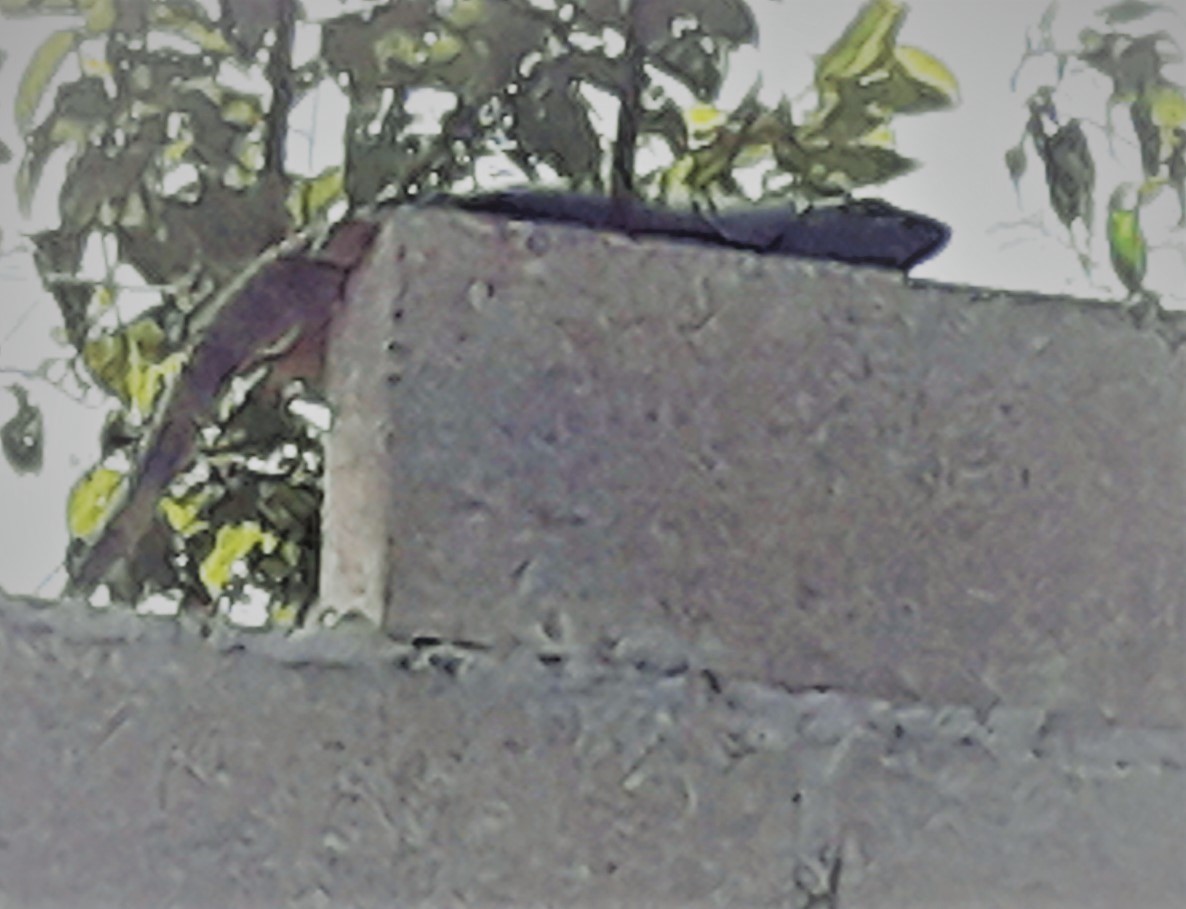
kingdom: Animalia
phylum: Chordata
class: Squamata
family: Iguanidae
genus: Ctenosaura
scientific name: Ctenosaura similis
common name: Black spiny-tailed iguana
